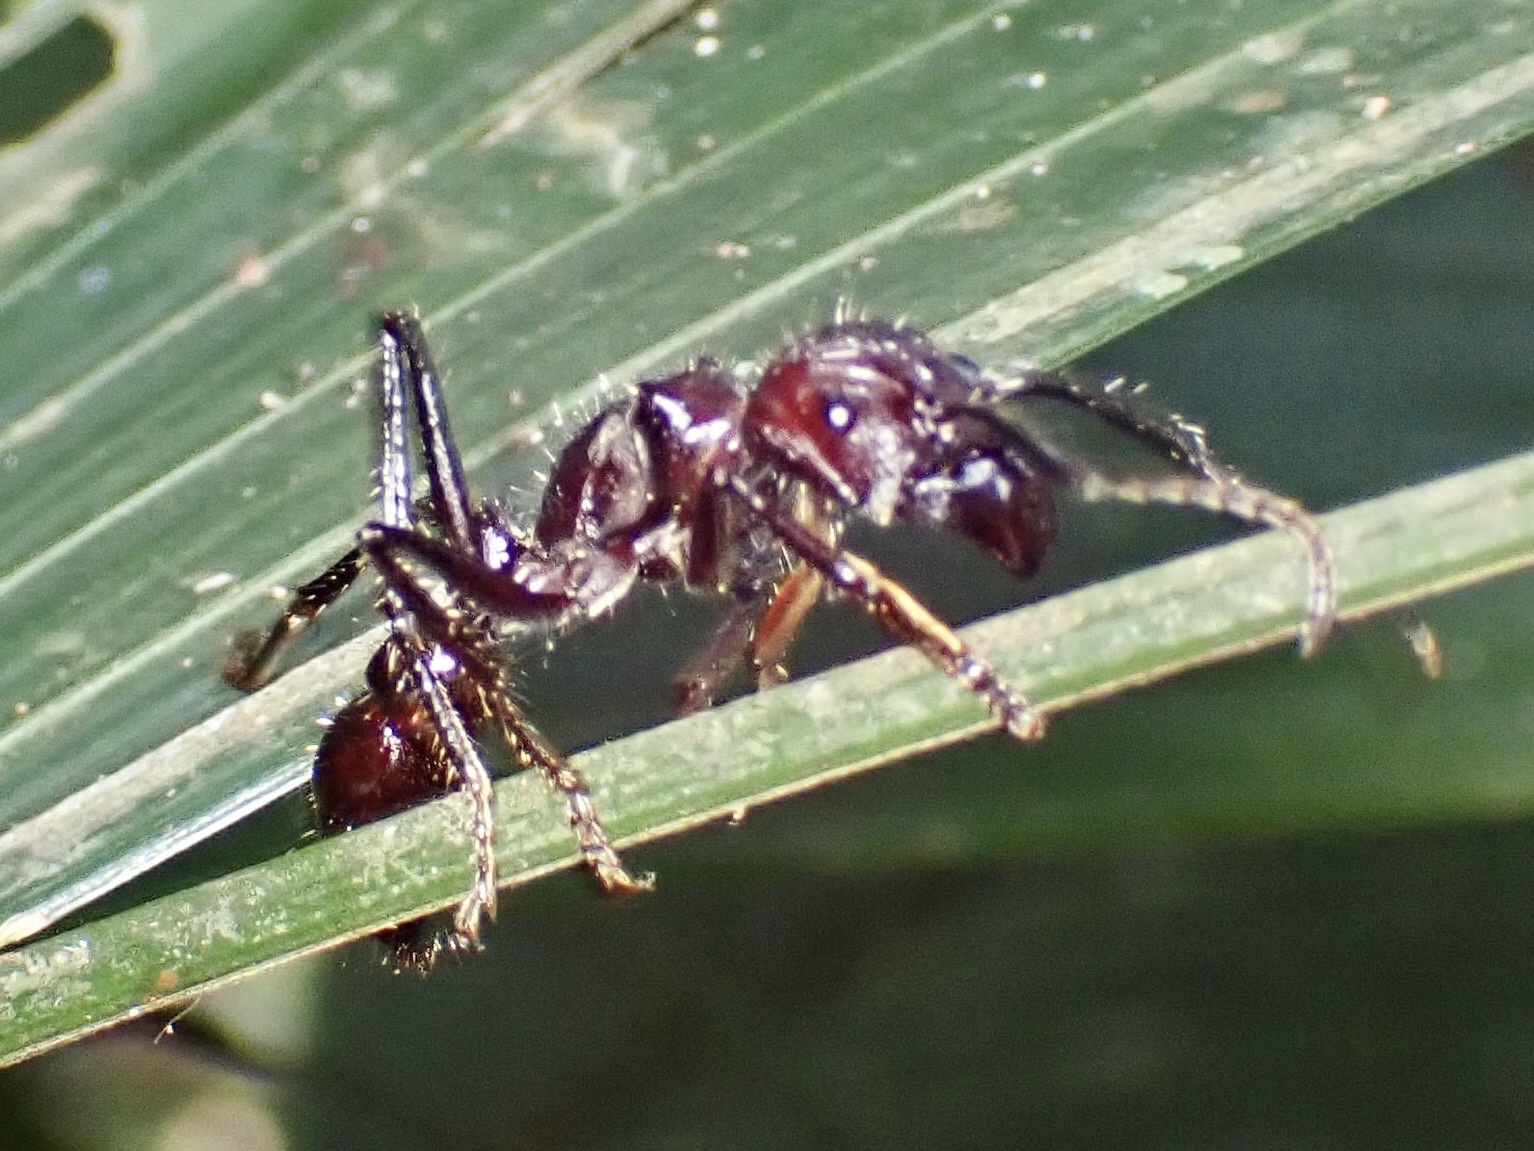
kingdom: Animalia
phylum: Arthropoda
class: Insecta
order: Hymenoptera
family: Formicidae
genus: Paraponera
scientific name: Paraponera clavata
